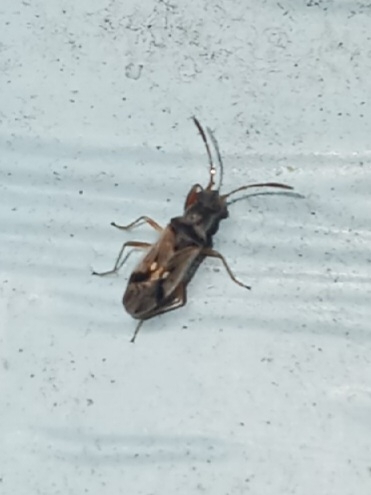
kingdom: Animalia
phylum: Arthropoda
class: Insecta
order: Hemiptera
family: Rhyparochromidae
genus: Pseudopachybrachius
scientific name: Pseudopachybrachius vinctus
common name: Dirt-colored seed bug
